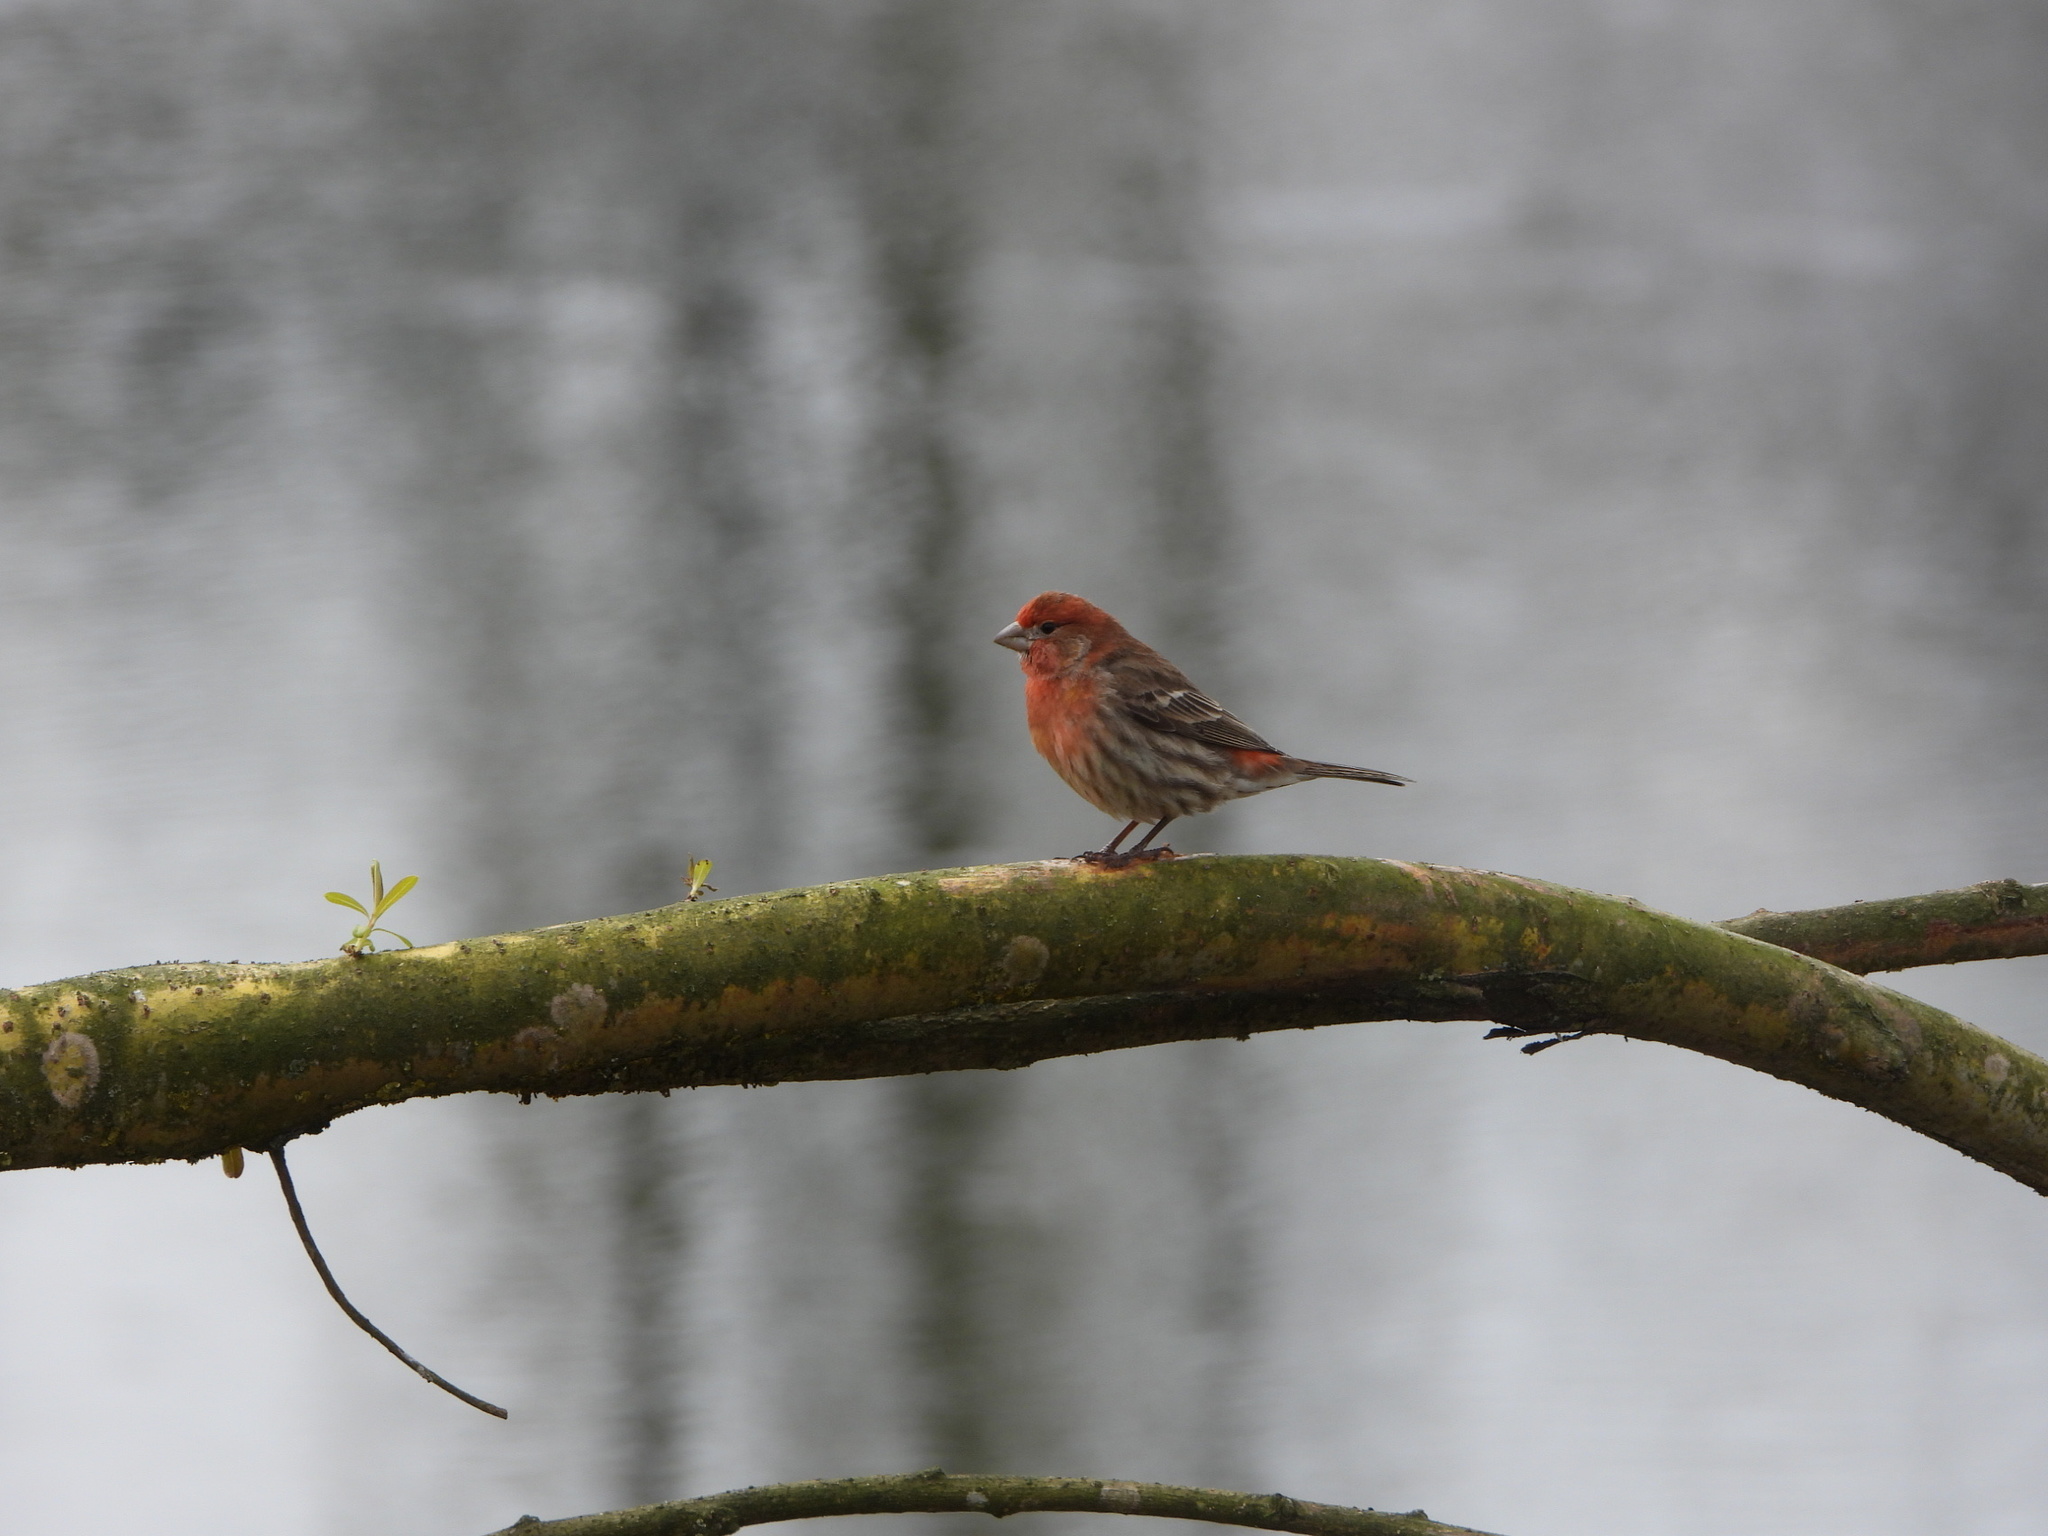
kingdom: Animalia
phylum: Chordata
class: Aves
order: Passeriformes
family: Fringillidae
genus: Haemorhous
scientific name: Haemorhous mexicanus
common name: House finch
